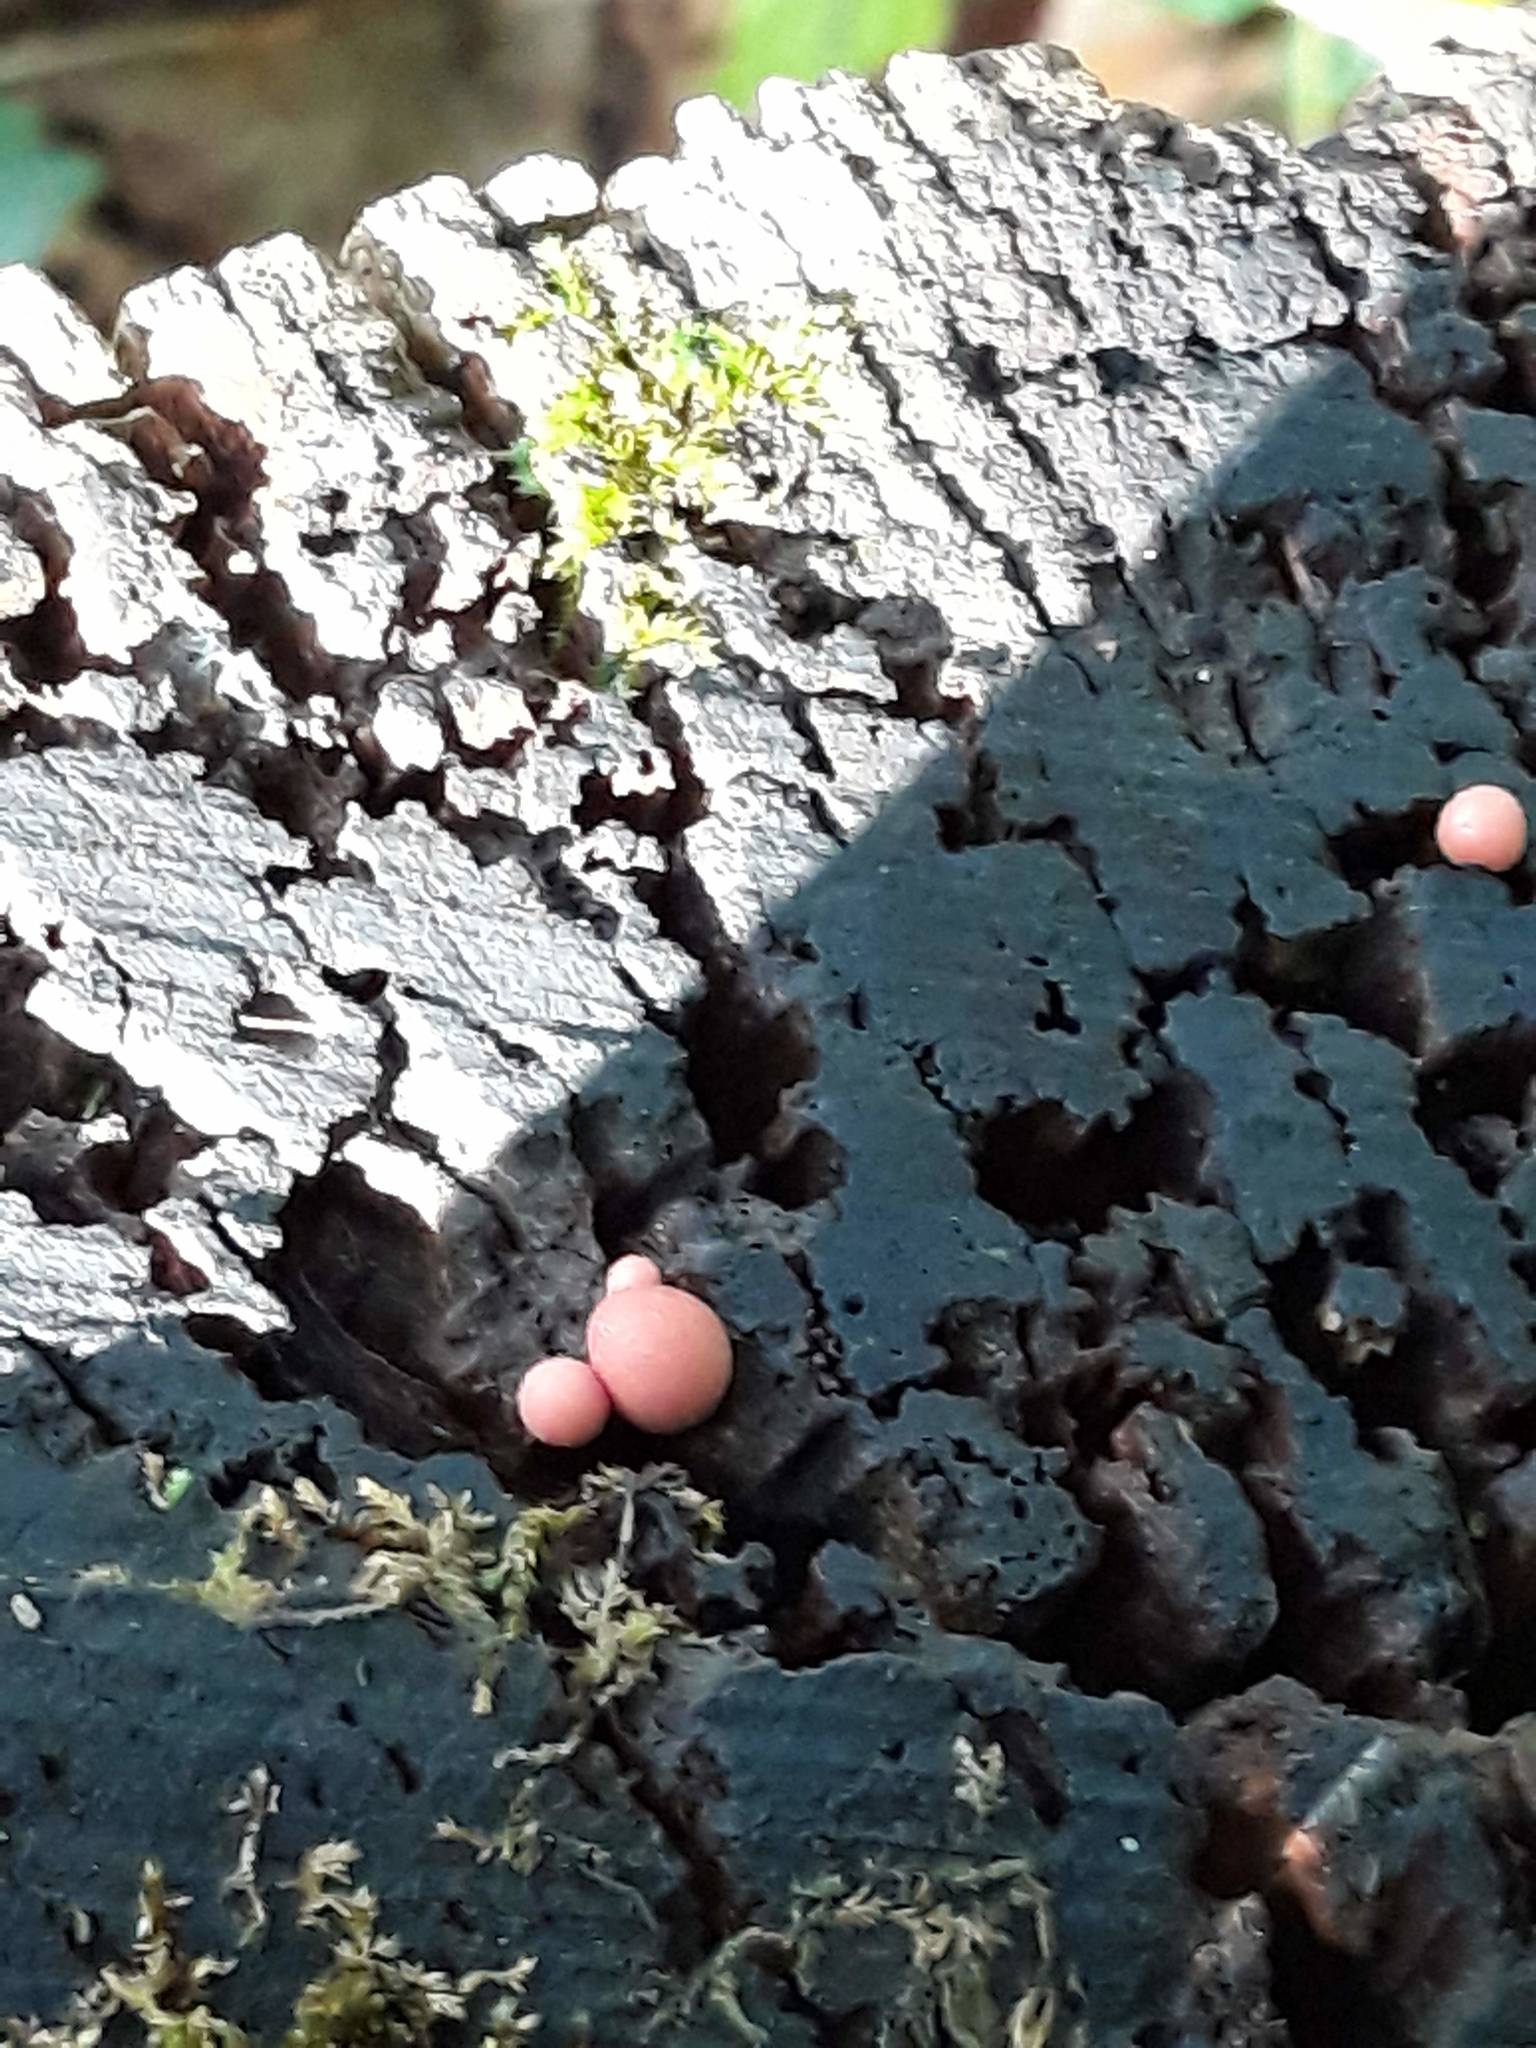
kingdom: Protozoa
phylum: Mycetozoa
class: Myxomycetes
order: Cribrariales
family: Tubiferaceae
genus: Lycogala
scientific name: Lycogala
